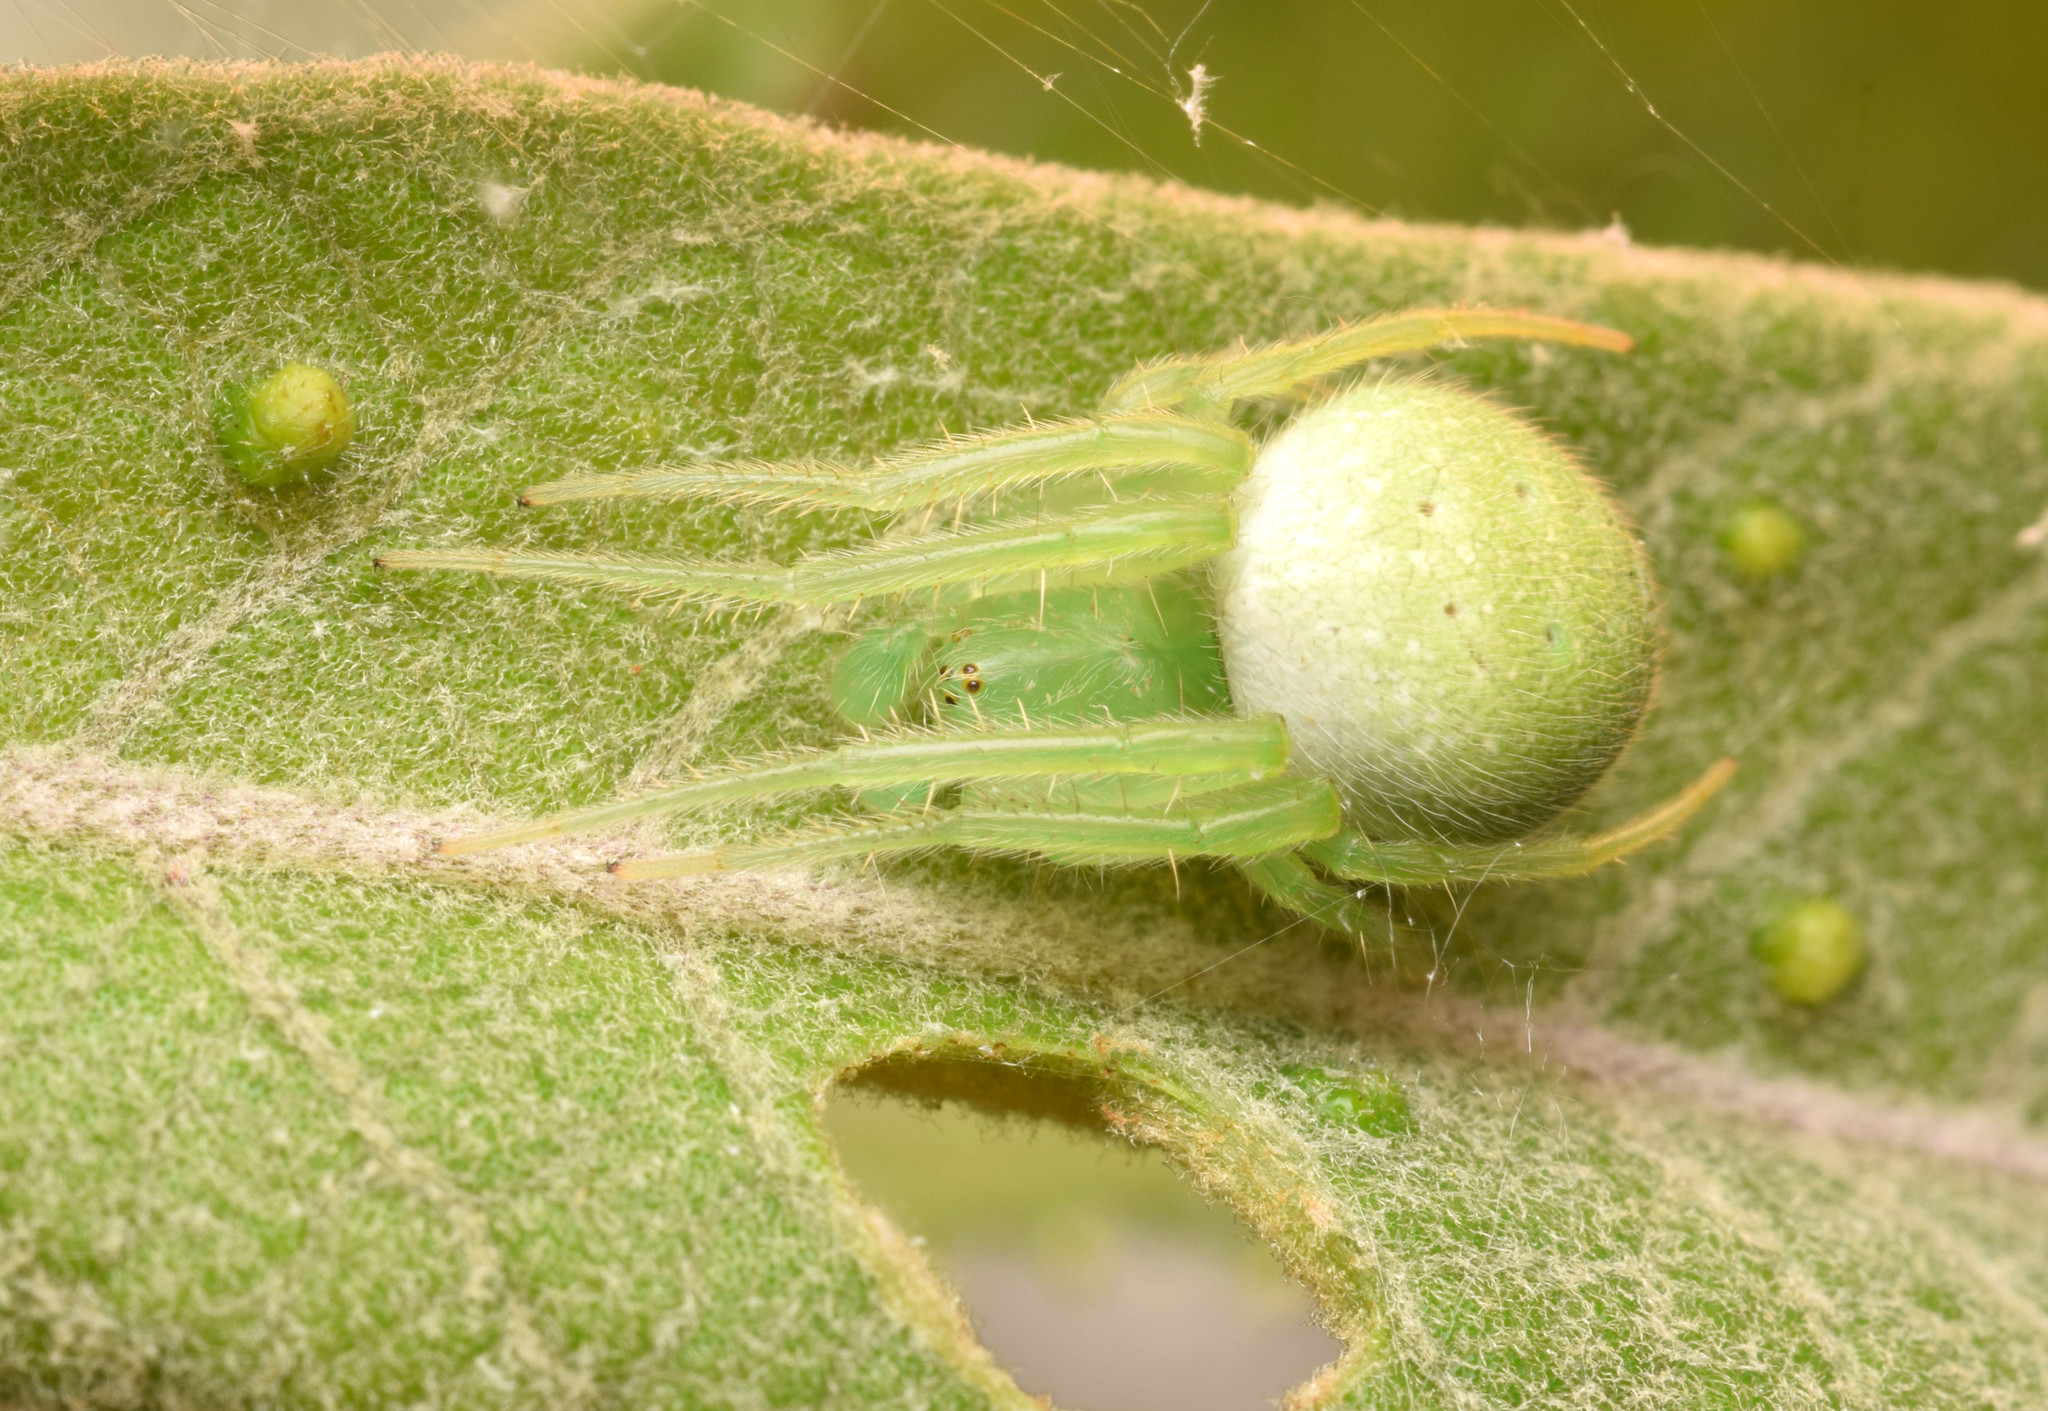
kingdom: Animalia
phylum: Arthropoda
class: Arachnida
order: Araneae
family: Araneidae
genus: Araneus
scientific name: Araneus uniformis
